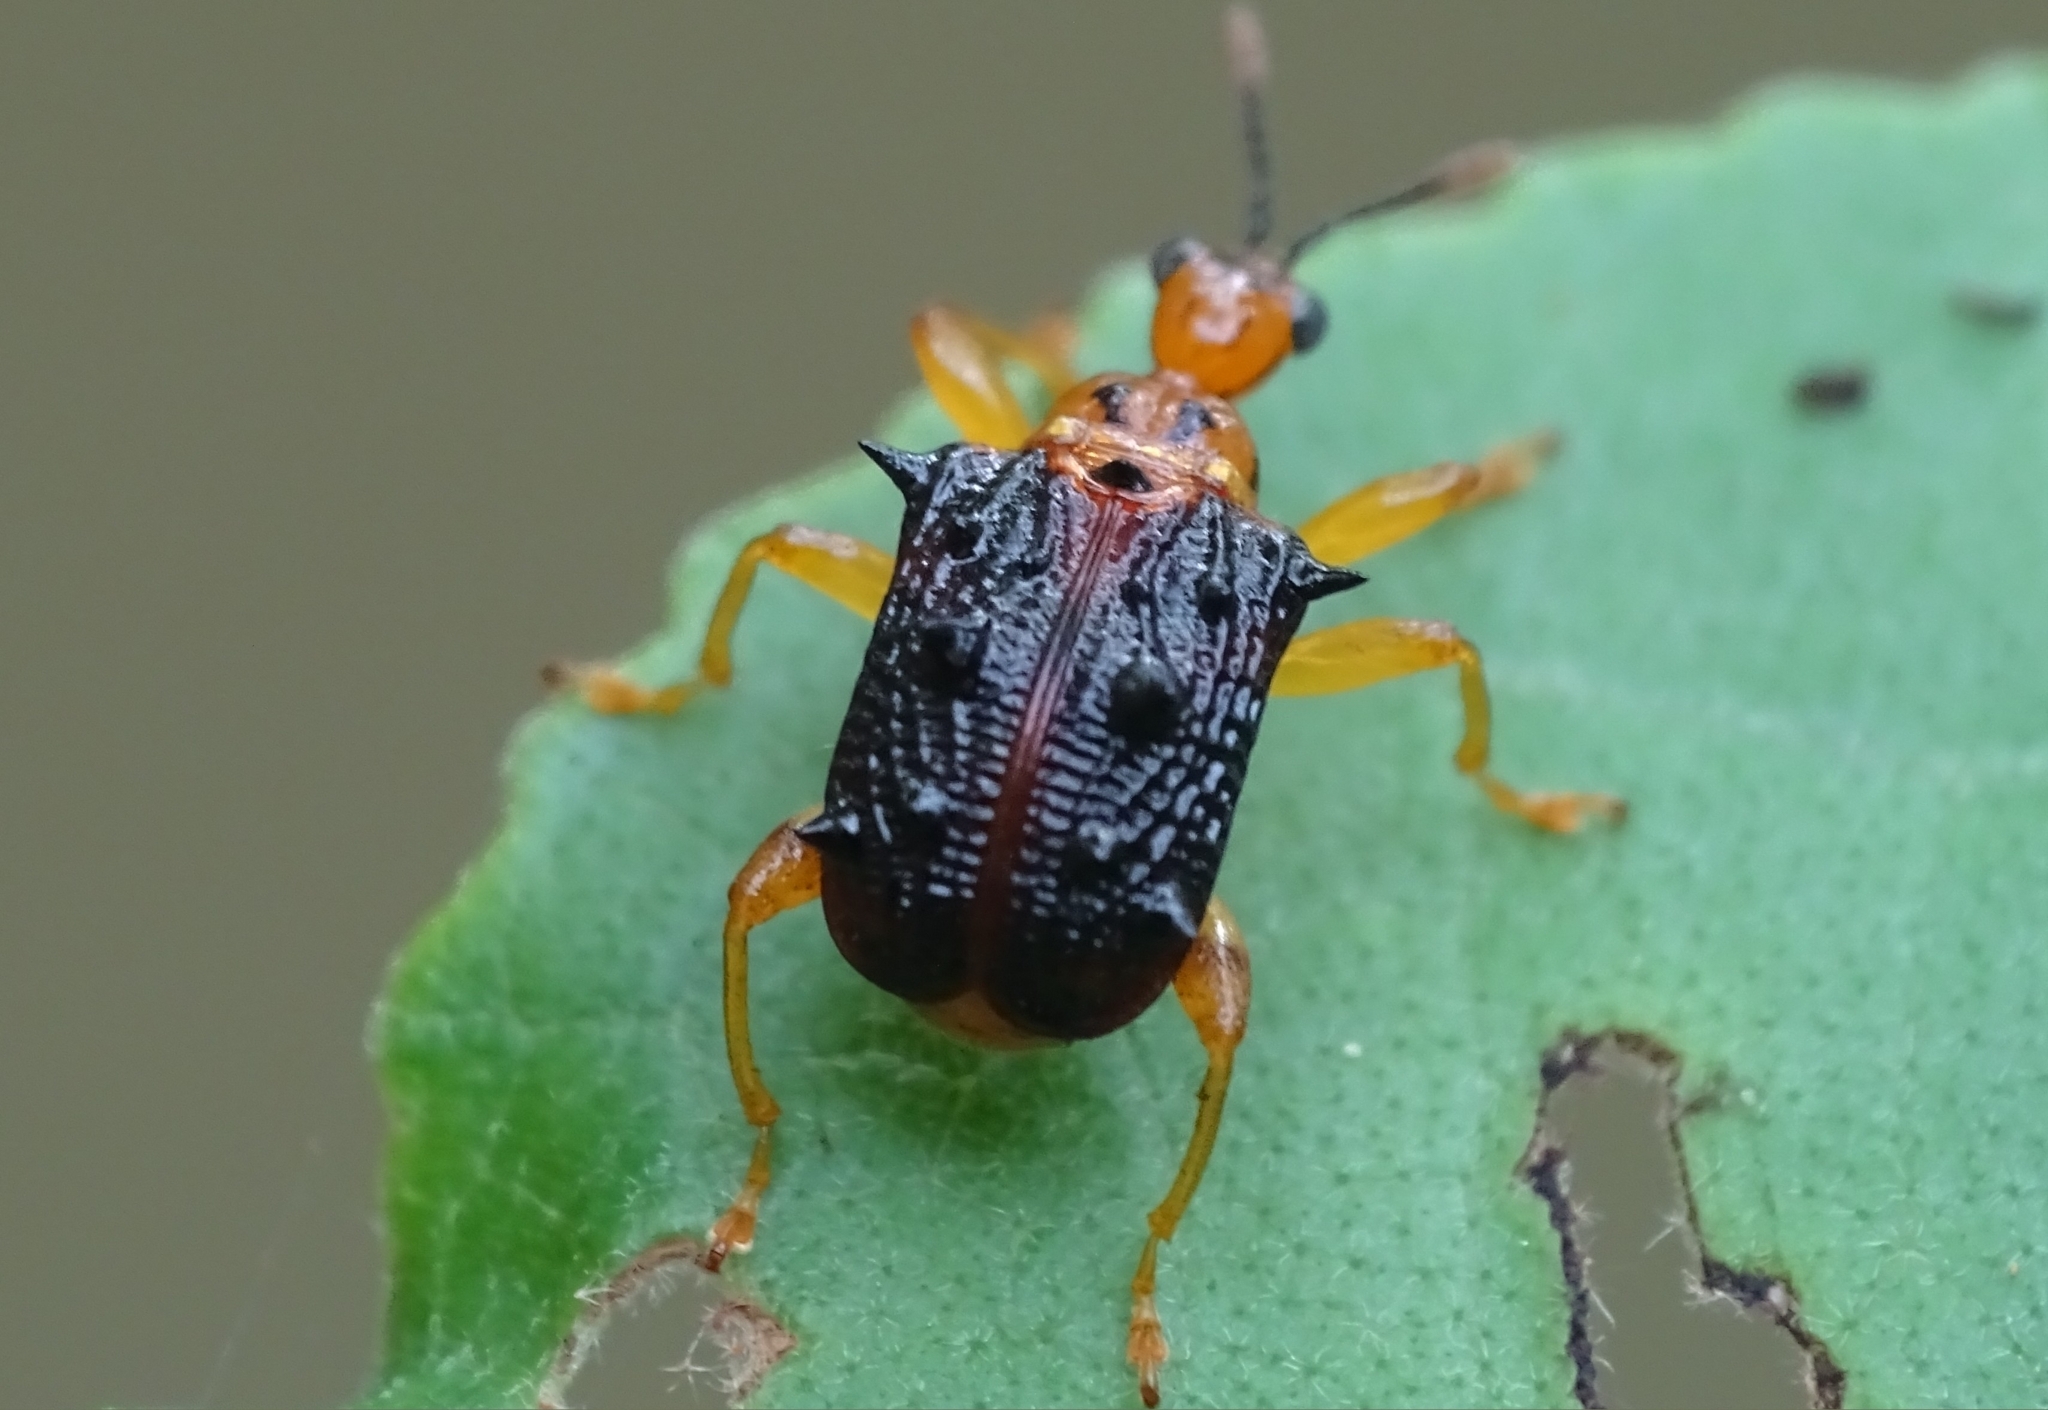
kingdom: Animalia
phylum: Arthropoda
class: Insecta
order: Coleoptera
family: Attelabidae
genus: Hoplapoderus
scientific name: Hoplapoderus hystrix
